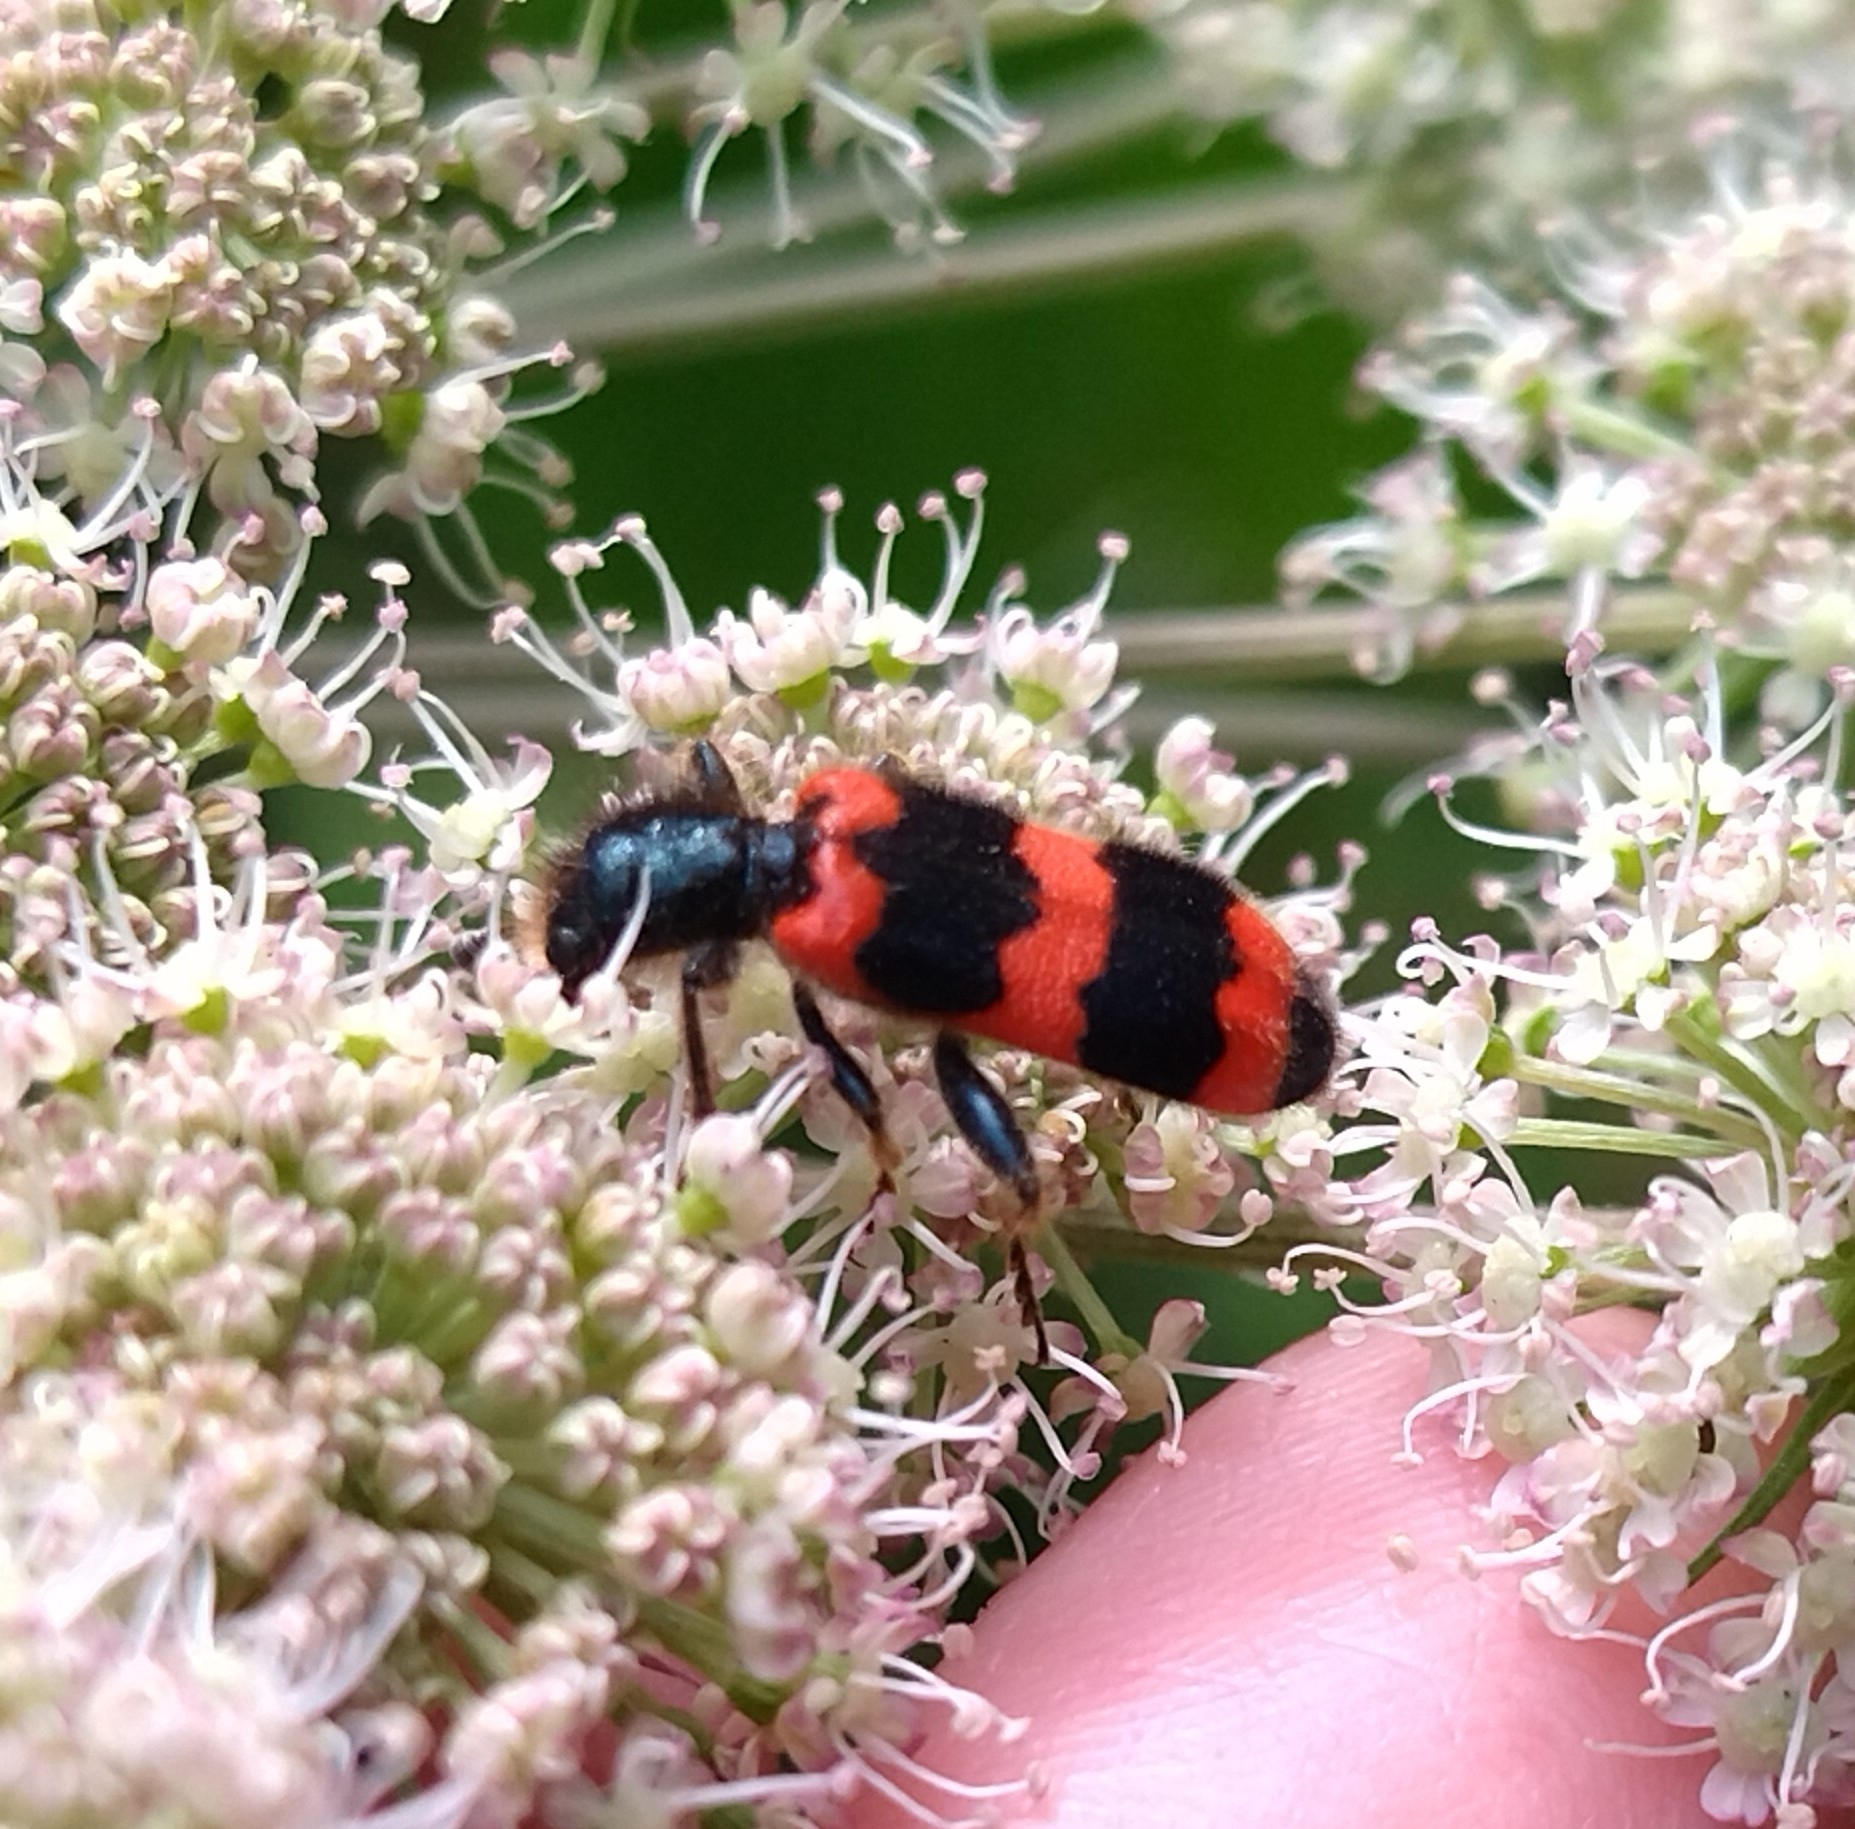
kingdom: Animalia
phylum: Arthropoda
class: Insecta
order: Coleoptera
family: Cleridae
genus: Trichodes
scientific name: Trichodes apiarius
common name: Bee-eating beetle
